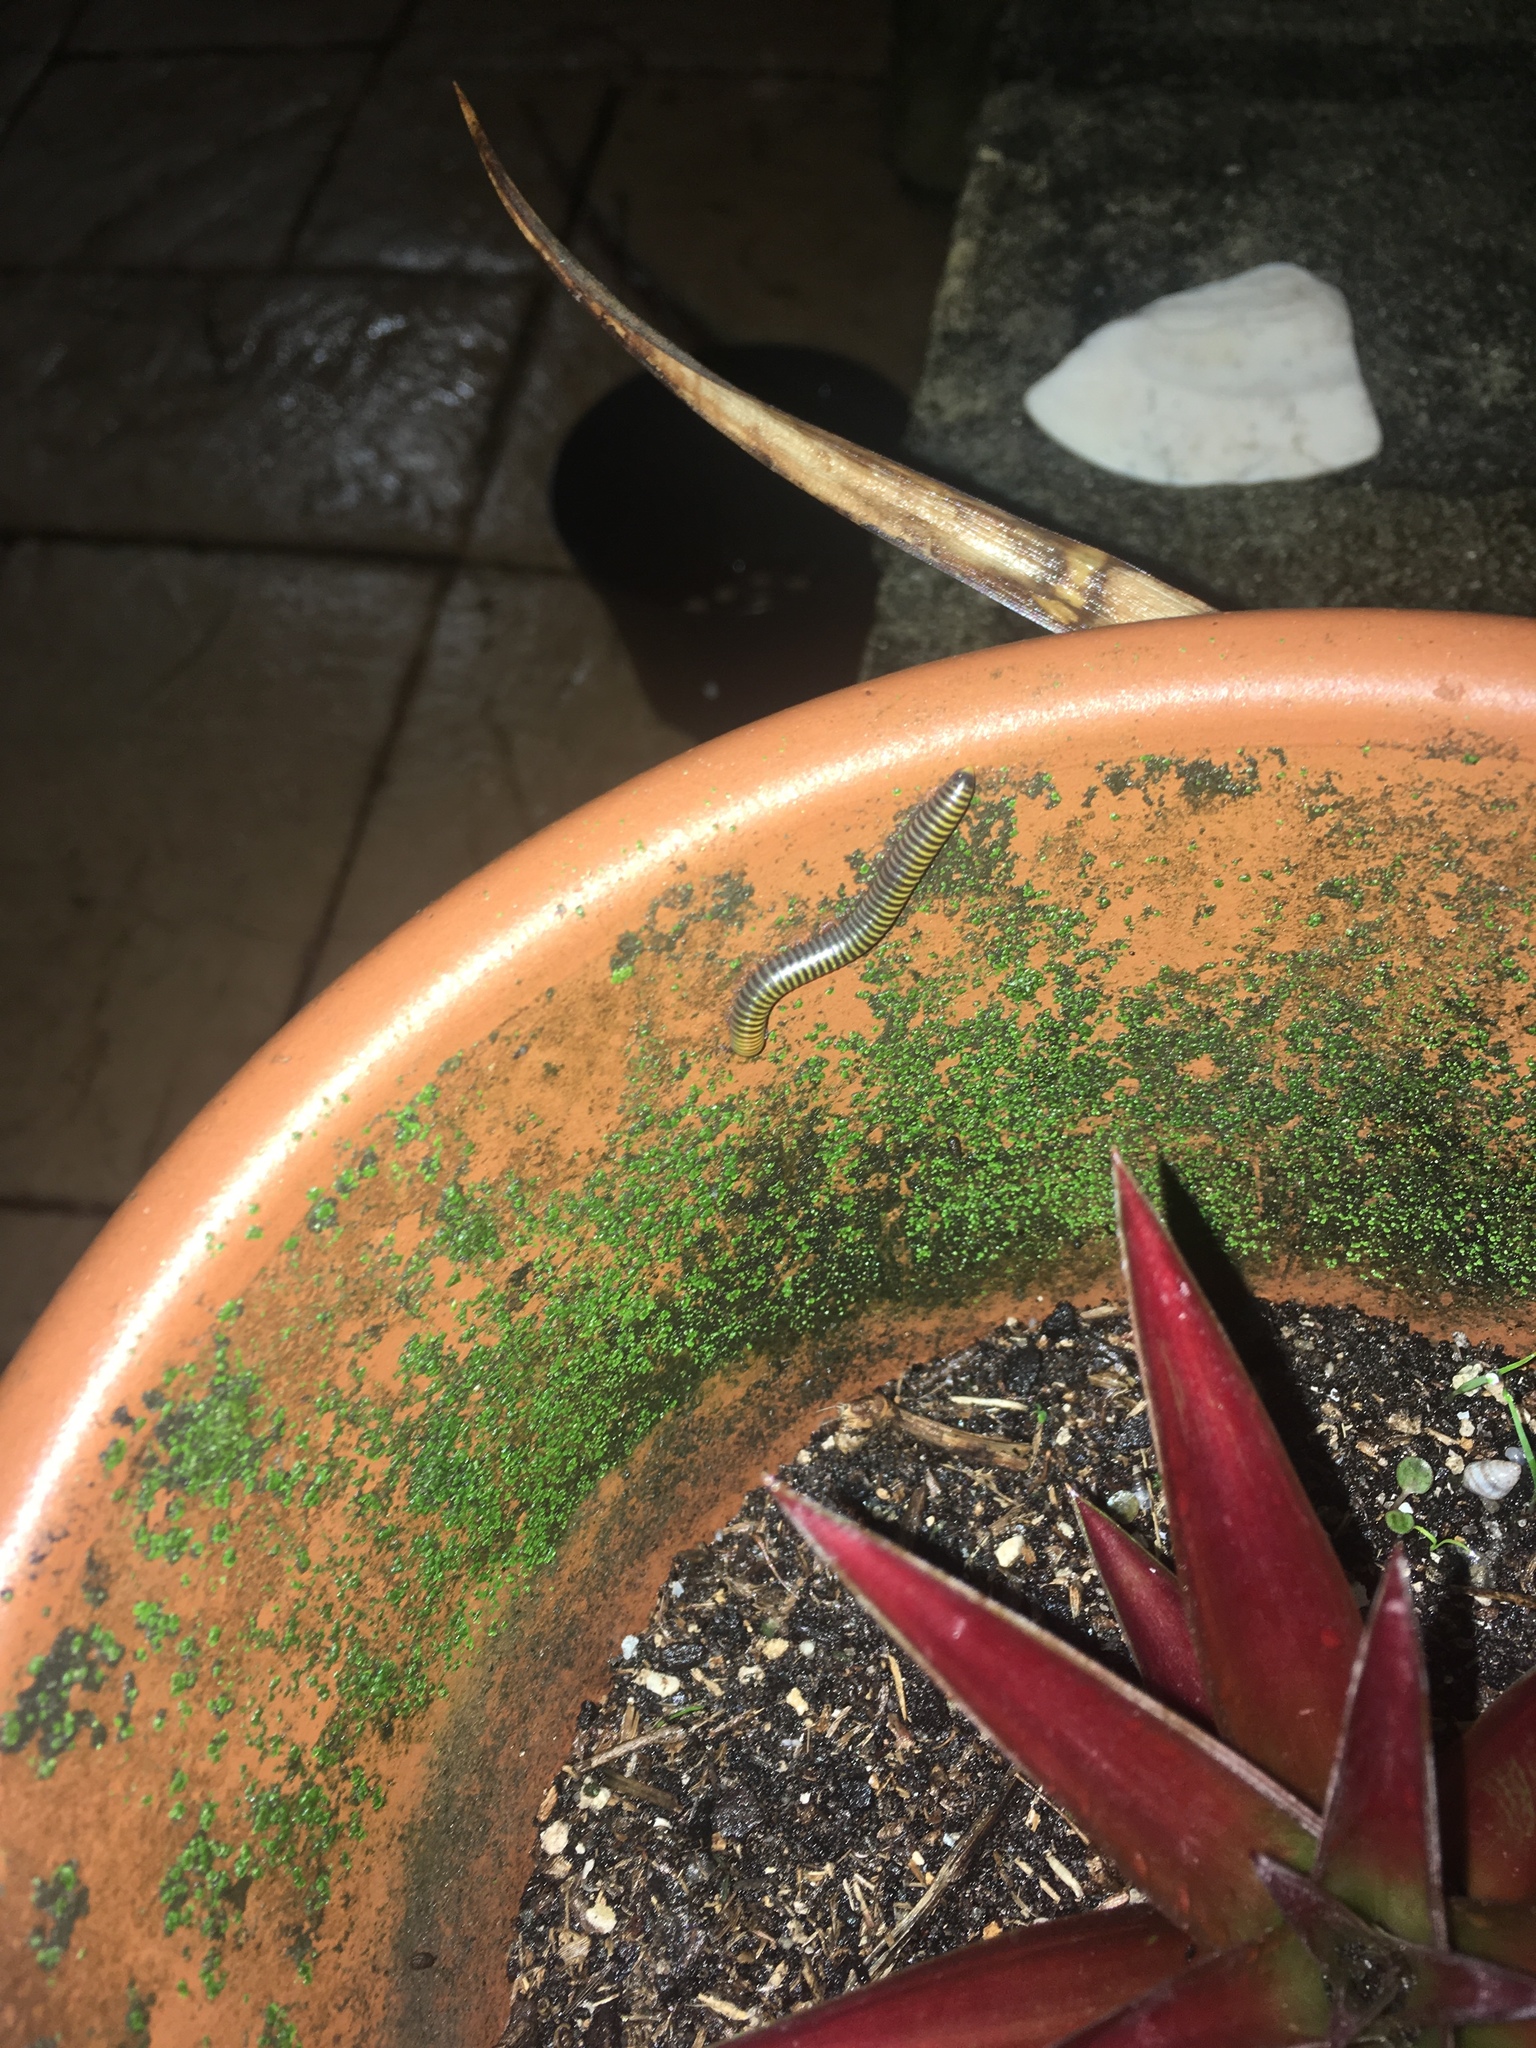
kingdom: Animalia
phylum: Arthropoda
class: Diplopoda
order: Spirobolida
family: Rhinocricidae
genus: Anadenobolus
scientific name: Anadenobolus monilicornis
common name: Caribbean millipede
